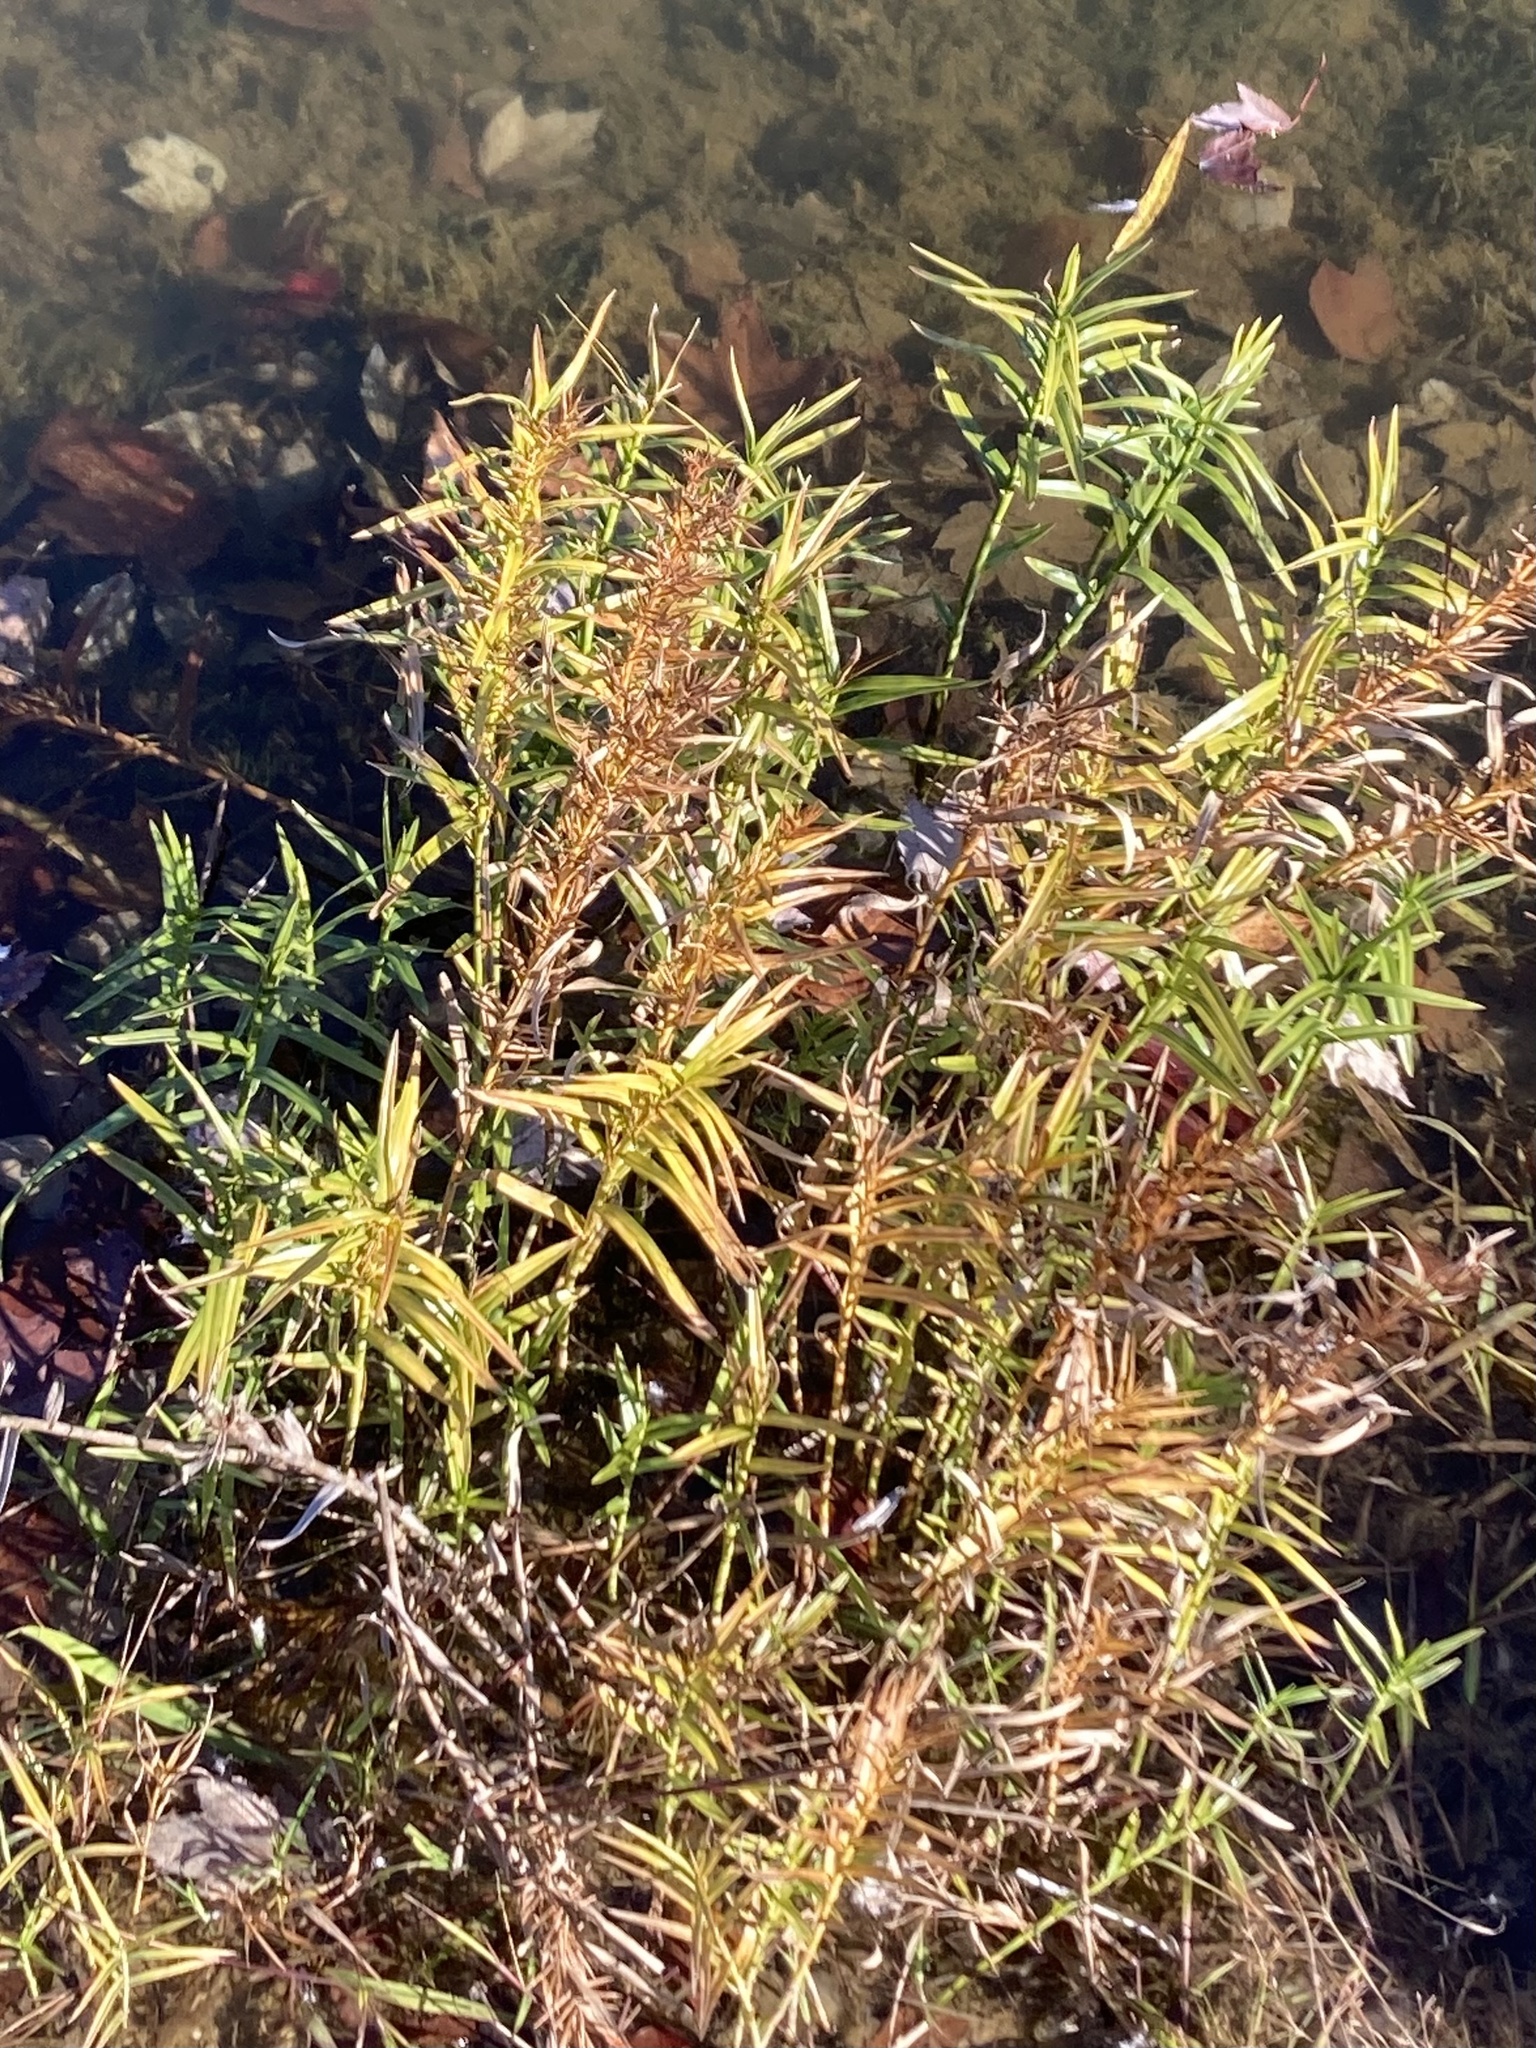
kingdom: Plantae
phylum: Tracheophyta
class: Liliopsida
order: Poales
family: Cyperaceae
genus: Dulichium
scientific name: Dulichium arundinaceum
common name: Three-way sedge
